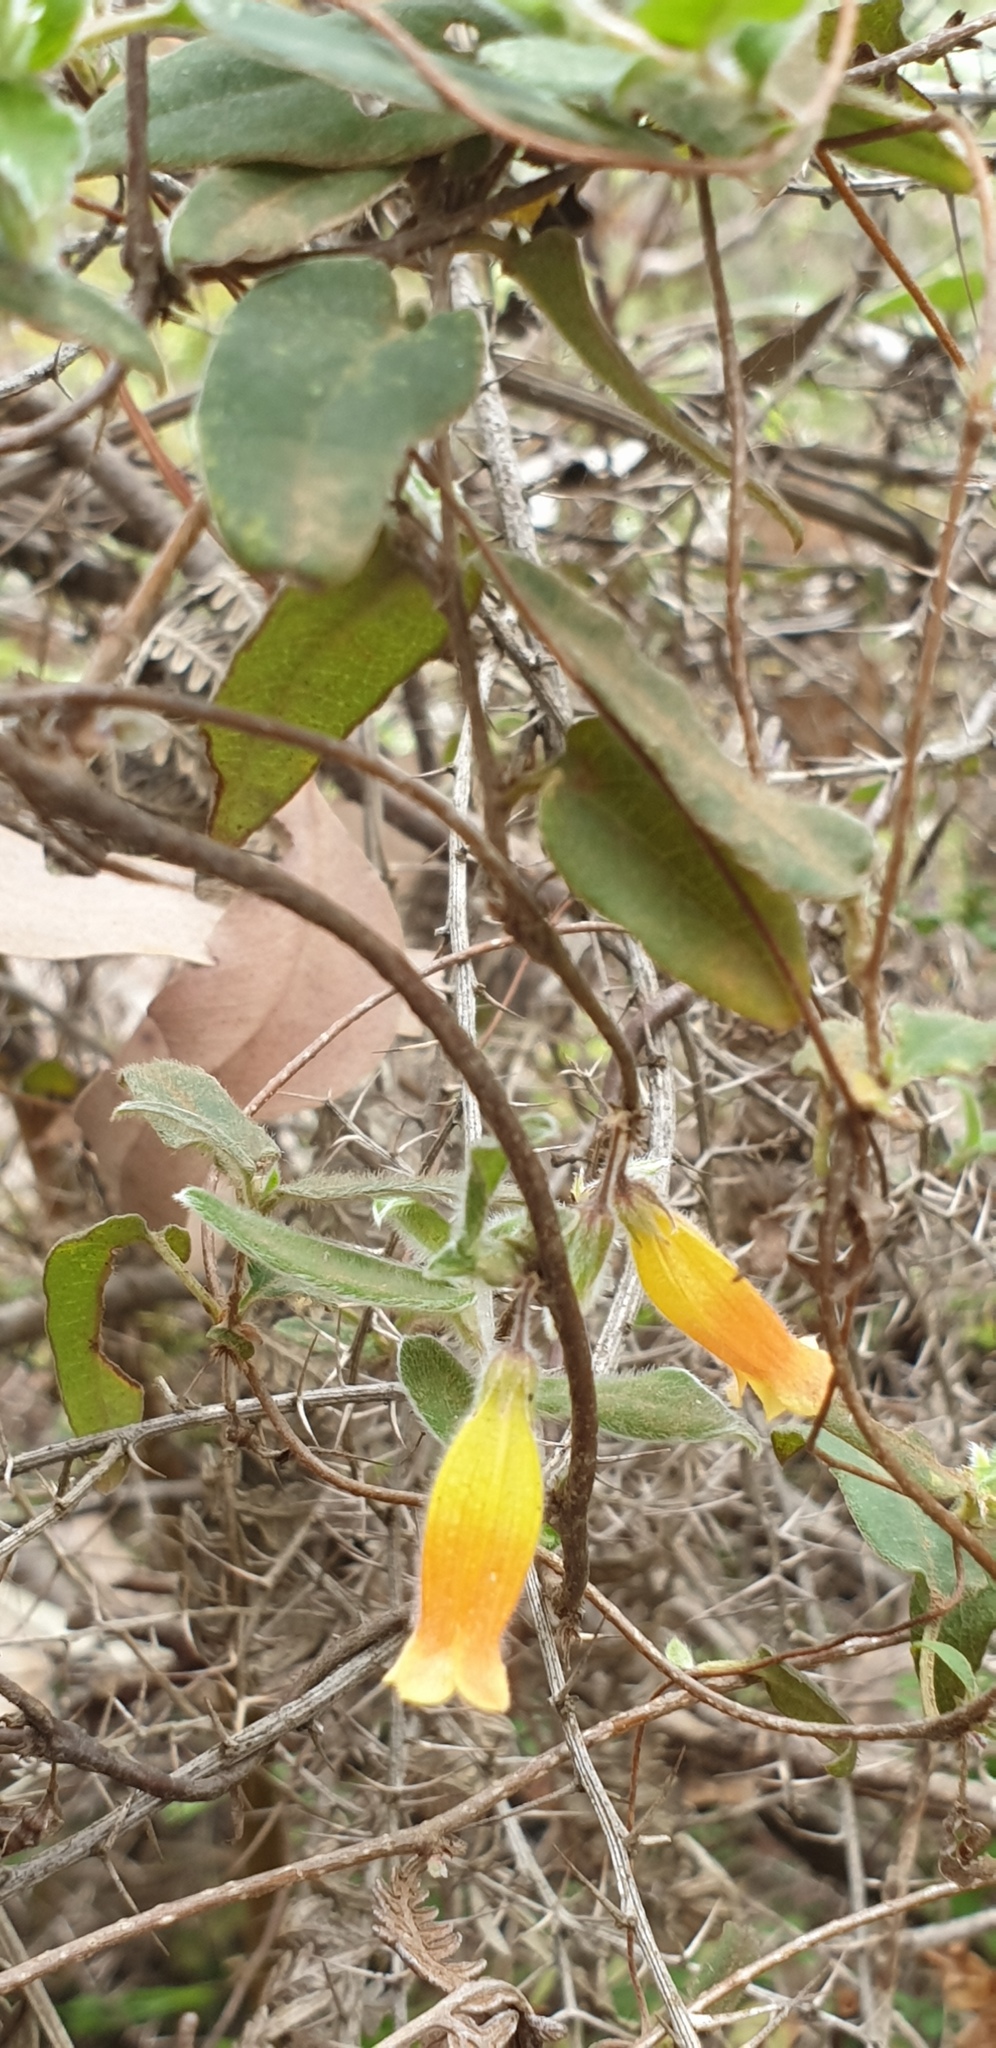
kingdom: Plantae
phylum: Tracheophyta
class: Magnoliopsida
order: Apiales
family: Pittosporaceae
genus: Marianthus
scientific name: Marianthus bignoniaceus
